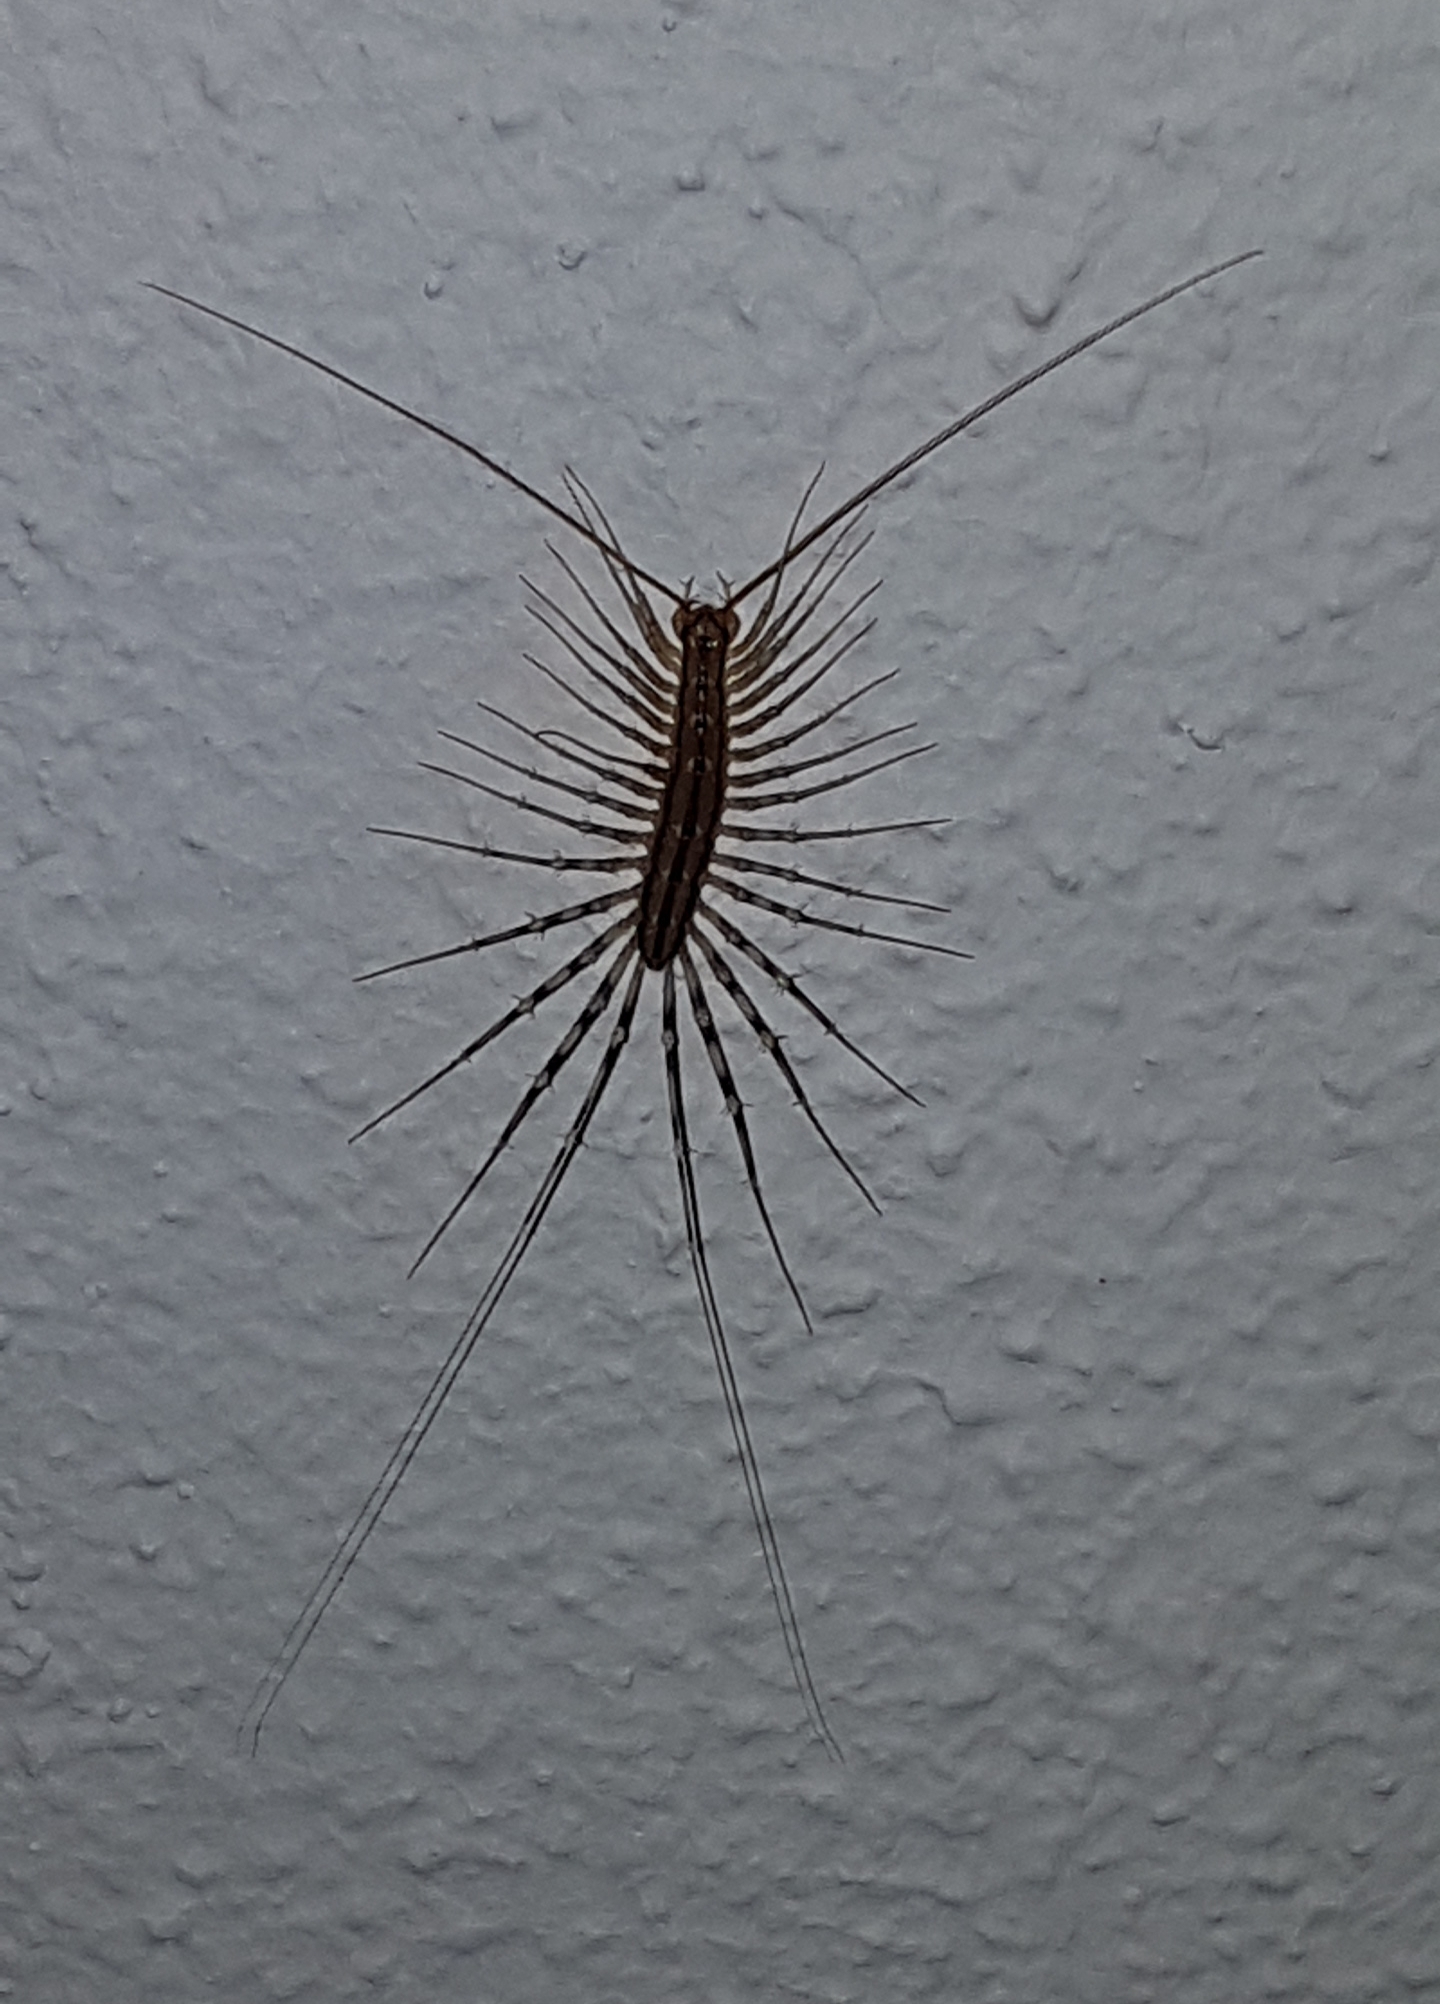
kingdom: Animalia
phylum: Arthropoda
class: Chilopoda
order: Scutigeromorpha
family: Scutigeridae
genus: Scutigera
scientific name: Scutigera coleoptrata
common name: House centipede
